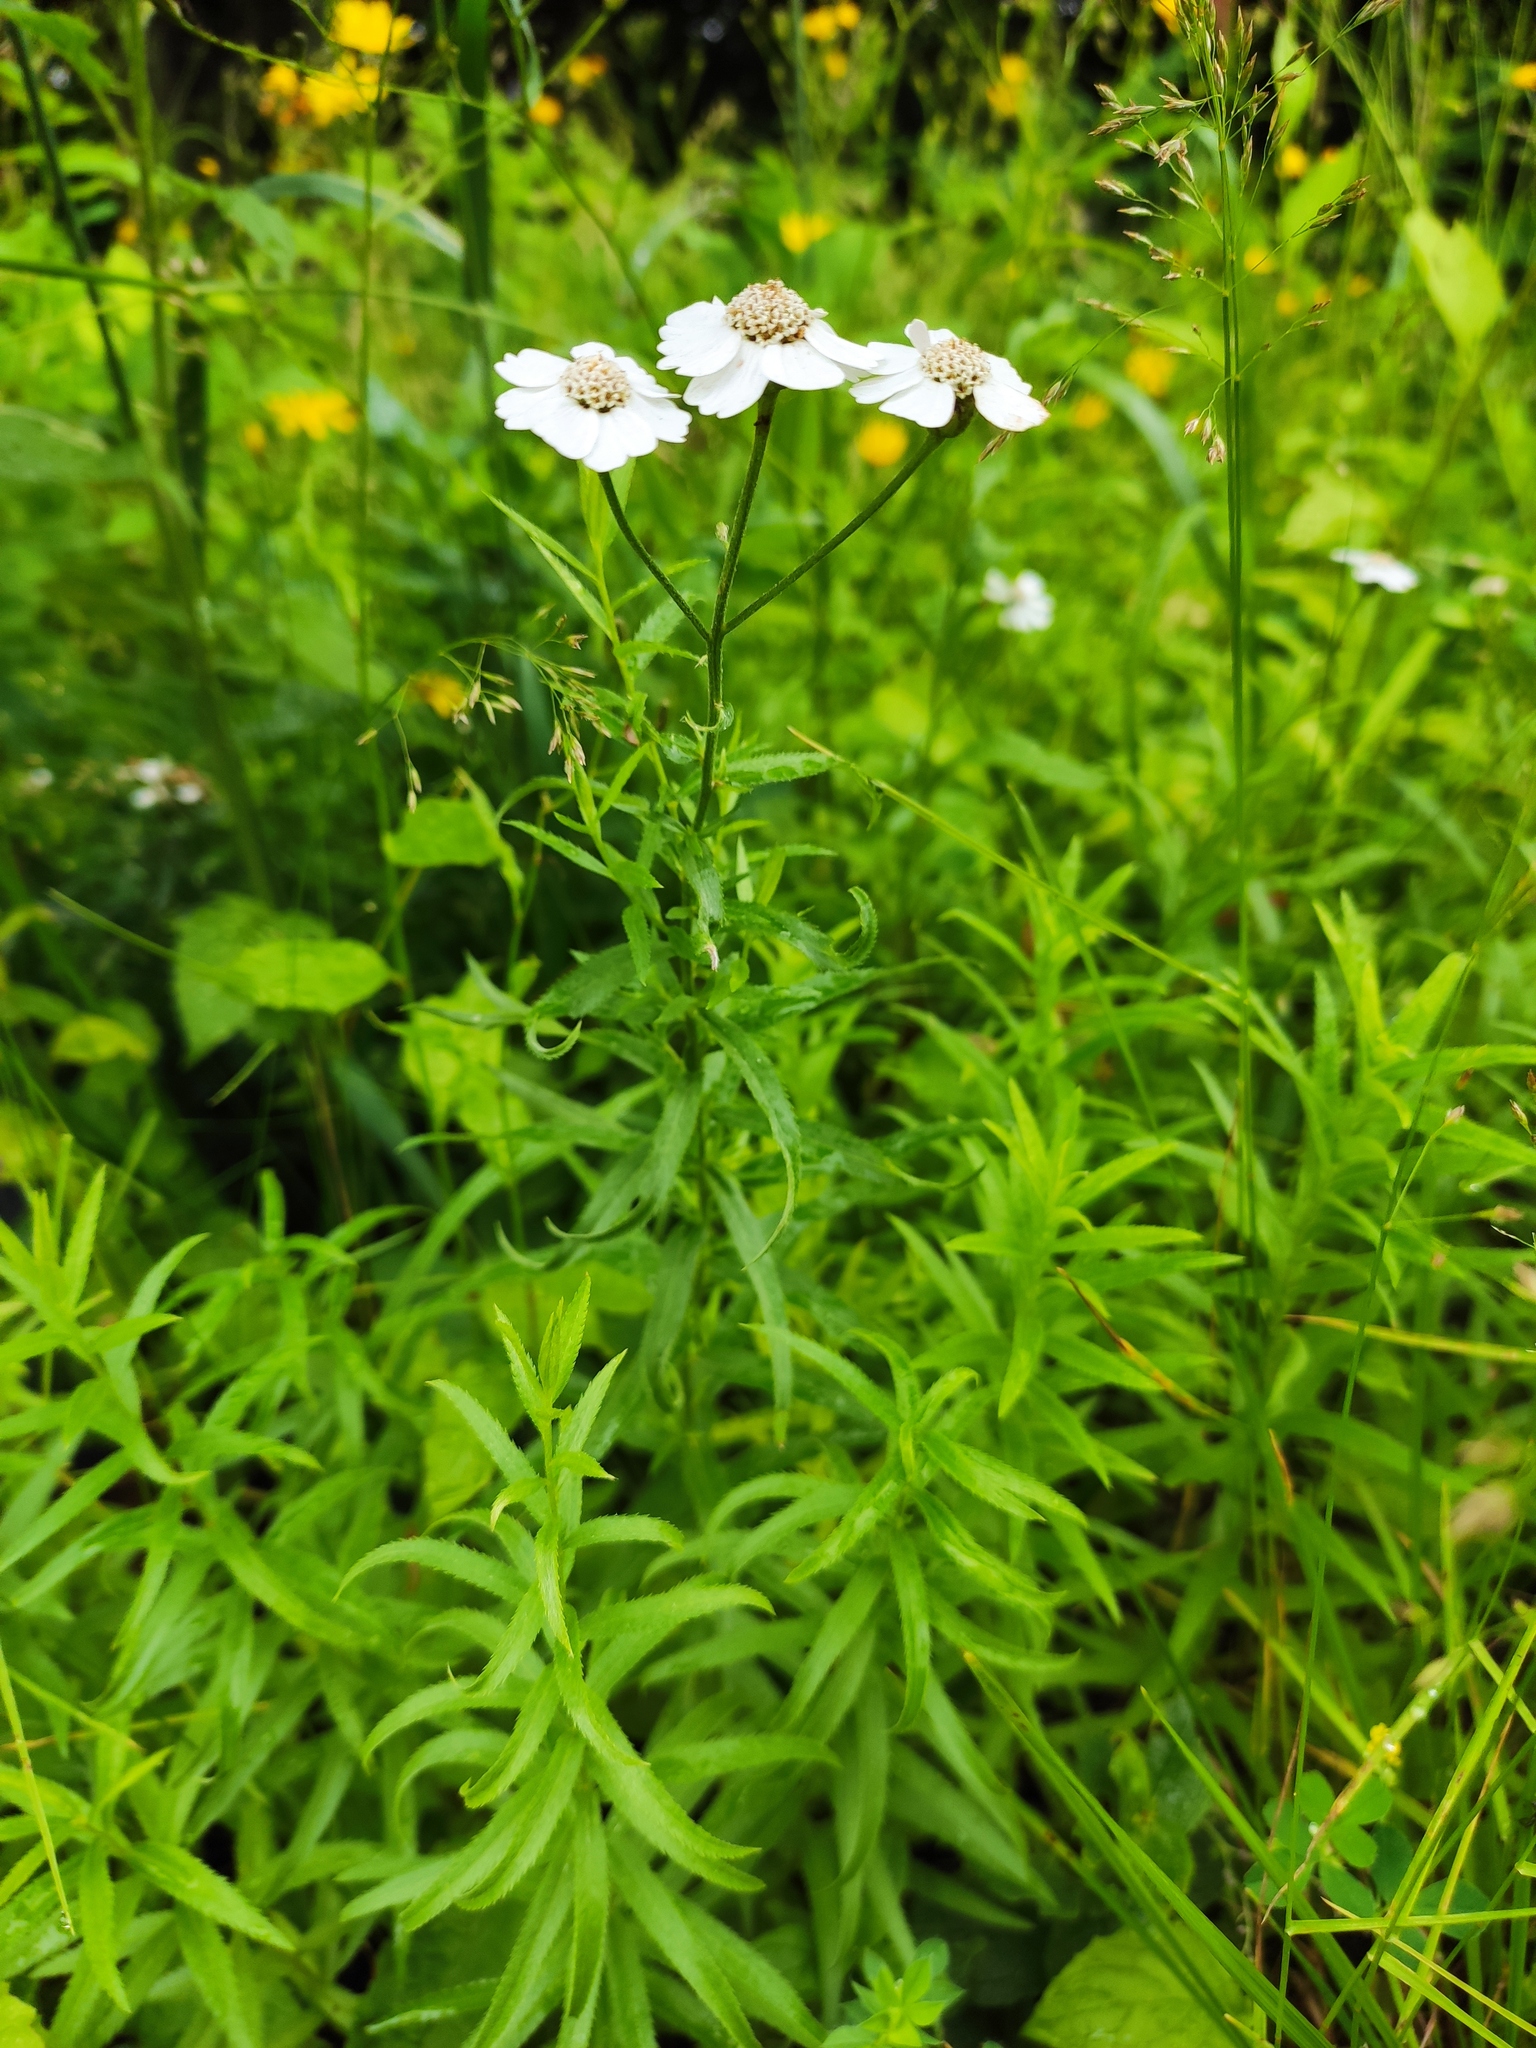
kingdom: Plantae
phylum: Tracheophyta
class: Magnoliopsida
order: Asterales
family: Asteraceae
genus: Achillea
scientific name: Achillea biserrata
